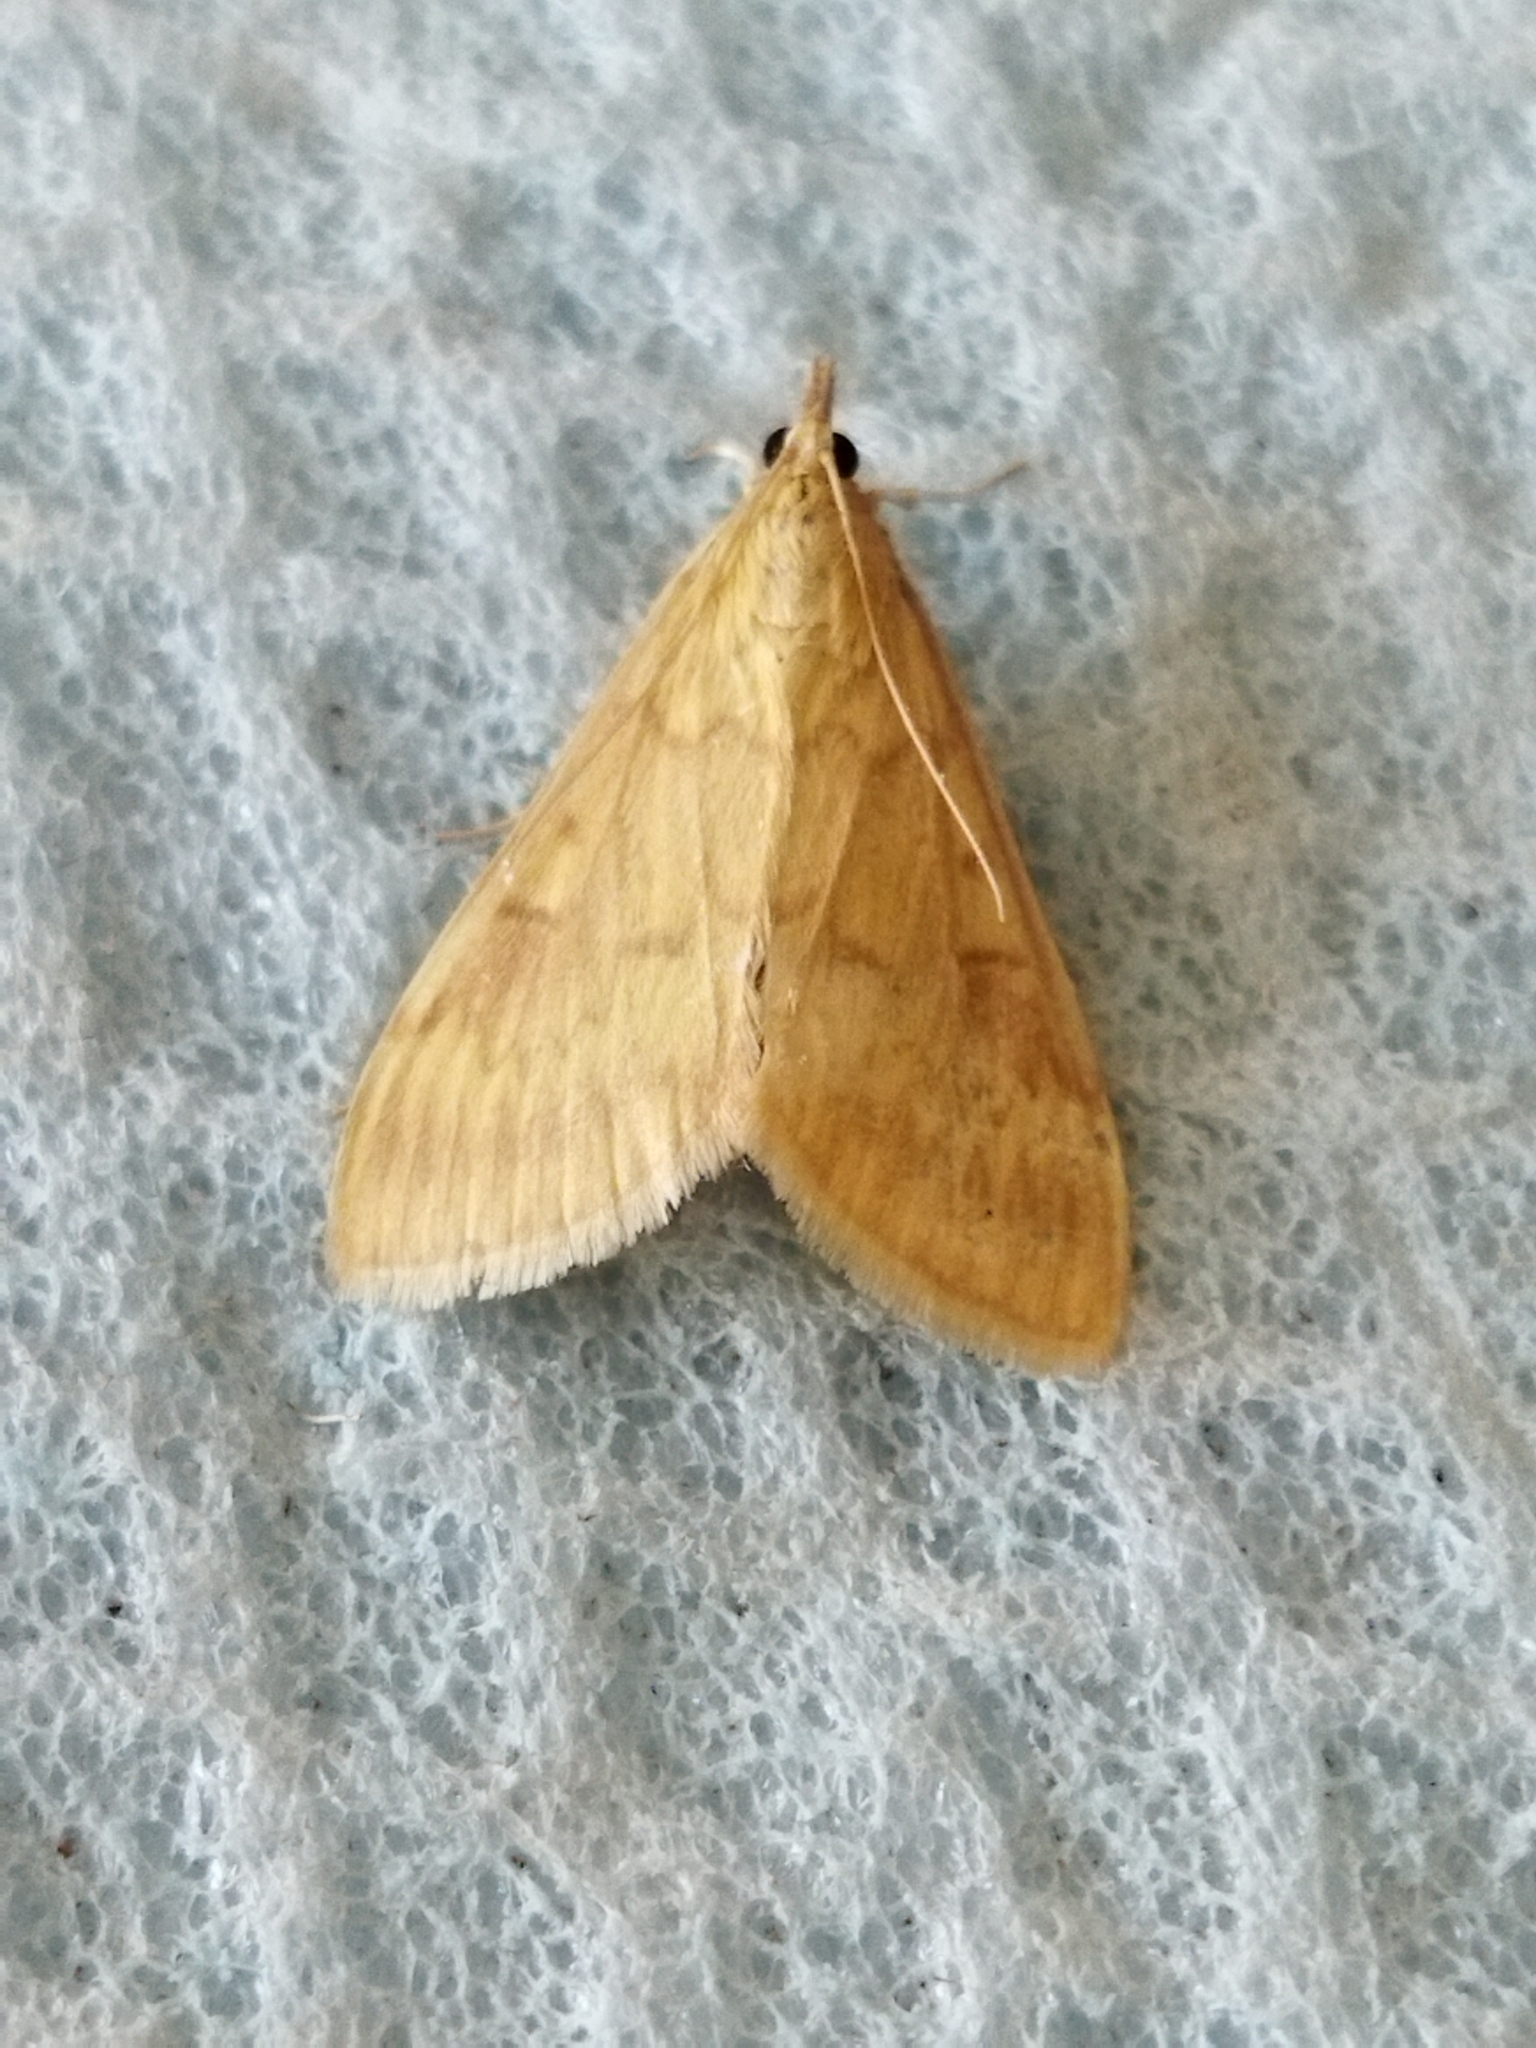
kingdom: Animalia
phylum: Arthropoda
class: Insecta
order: Lepidoptera
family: Crambidae
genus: Ostrinia
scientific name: Ostrinia nubilalis
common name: European corn borer
